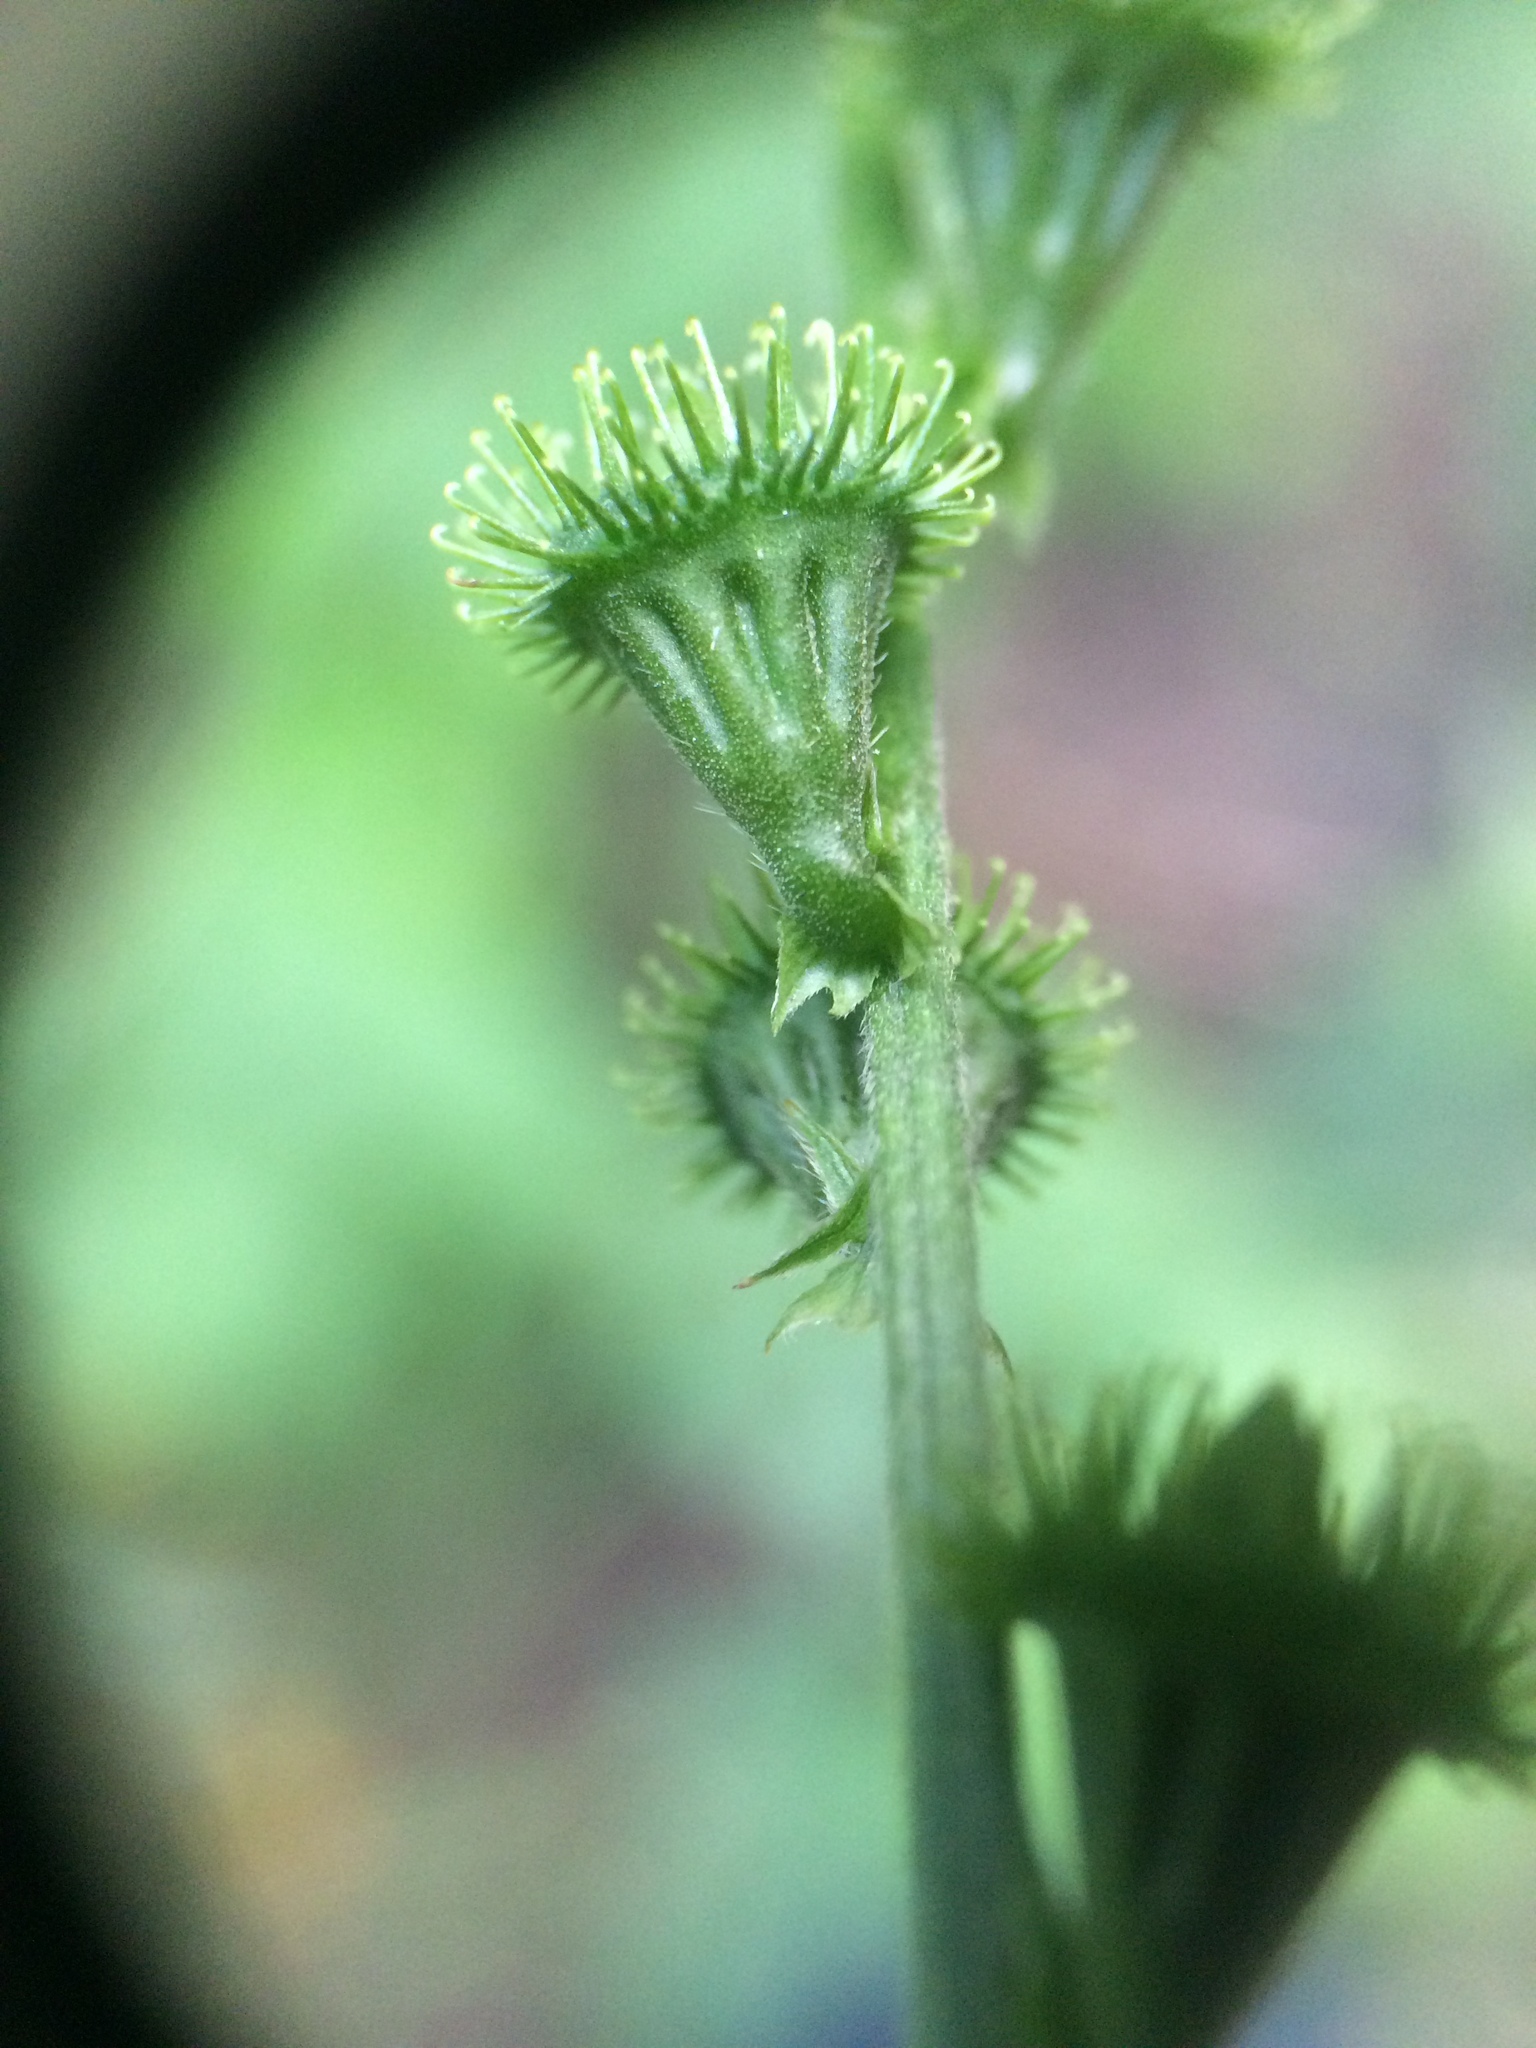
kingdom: Plantae
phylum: Tracheophyta
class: Magnoliopsida
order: Rosales
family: Rosaceae
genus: Agrimonia
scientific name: Agrimonia striata
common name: Britton's agrimony
